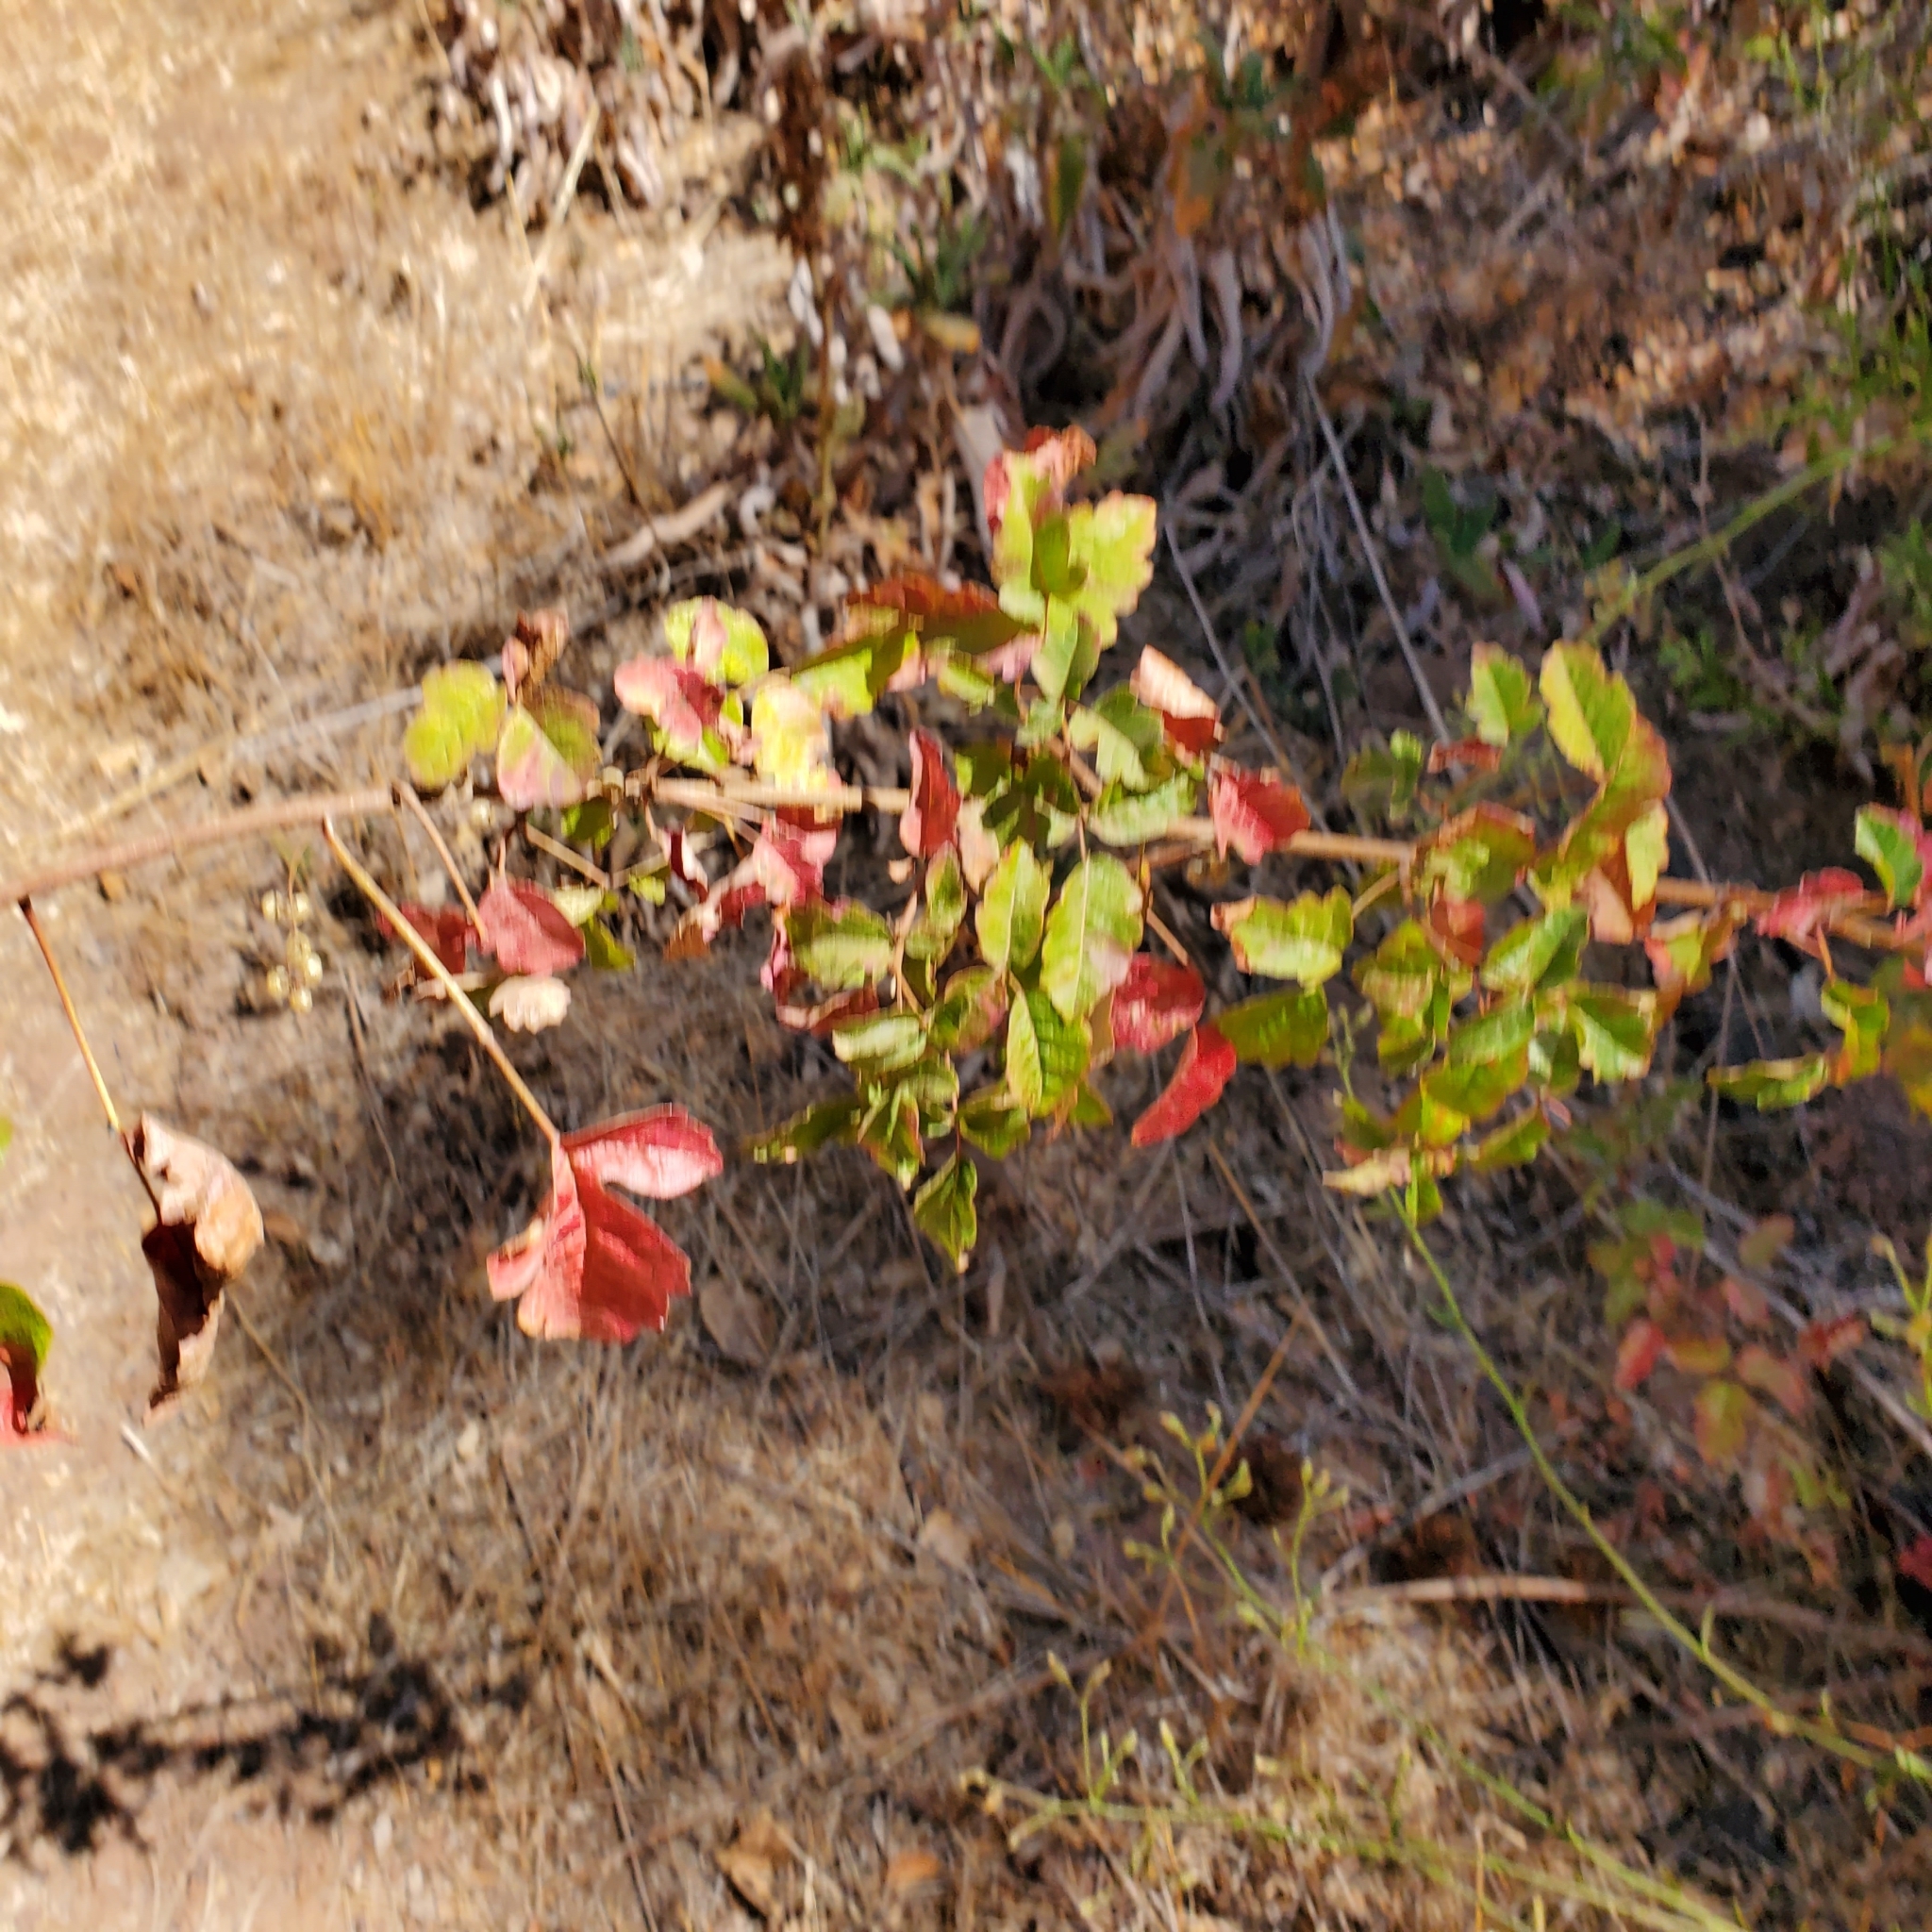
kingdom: Plantae
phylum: Tracheophyta
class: Magnoliopsida
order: Sapindales
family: Anacardiaceae
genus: Toxicodendron
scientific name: Toxicodendron diversilobum
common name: Pacific poison-oak
